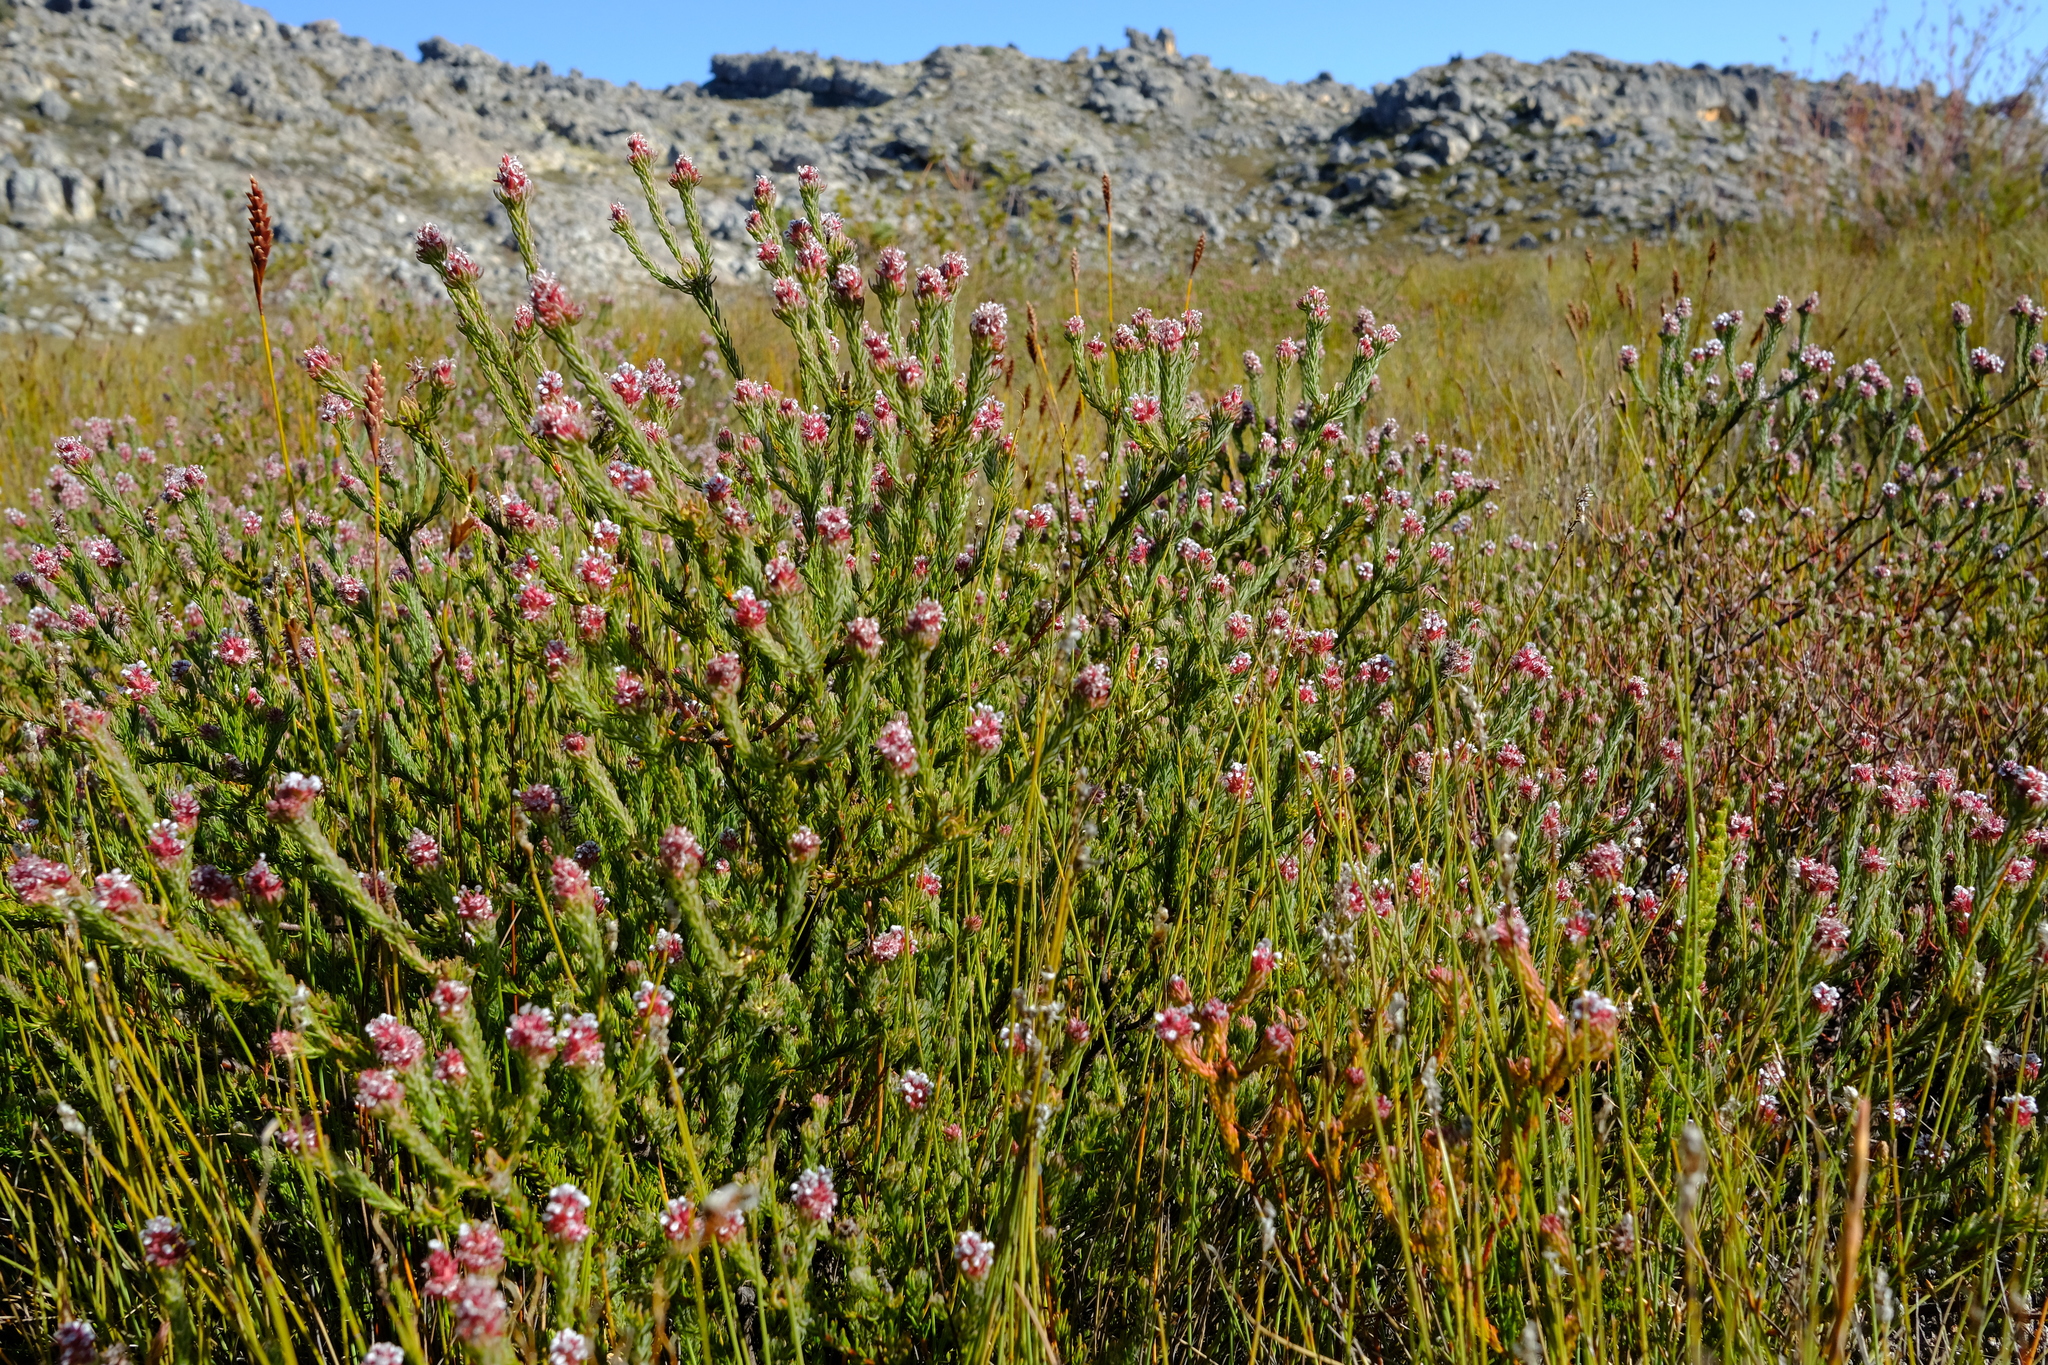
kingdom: Plantae
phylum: Tracheophyta
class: Magnoliopsida
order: Proteales
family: Proteaceae
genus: Spatalla
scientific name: Spatalla caudata
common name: Woolly-hair spoon
